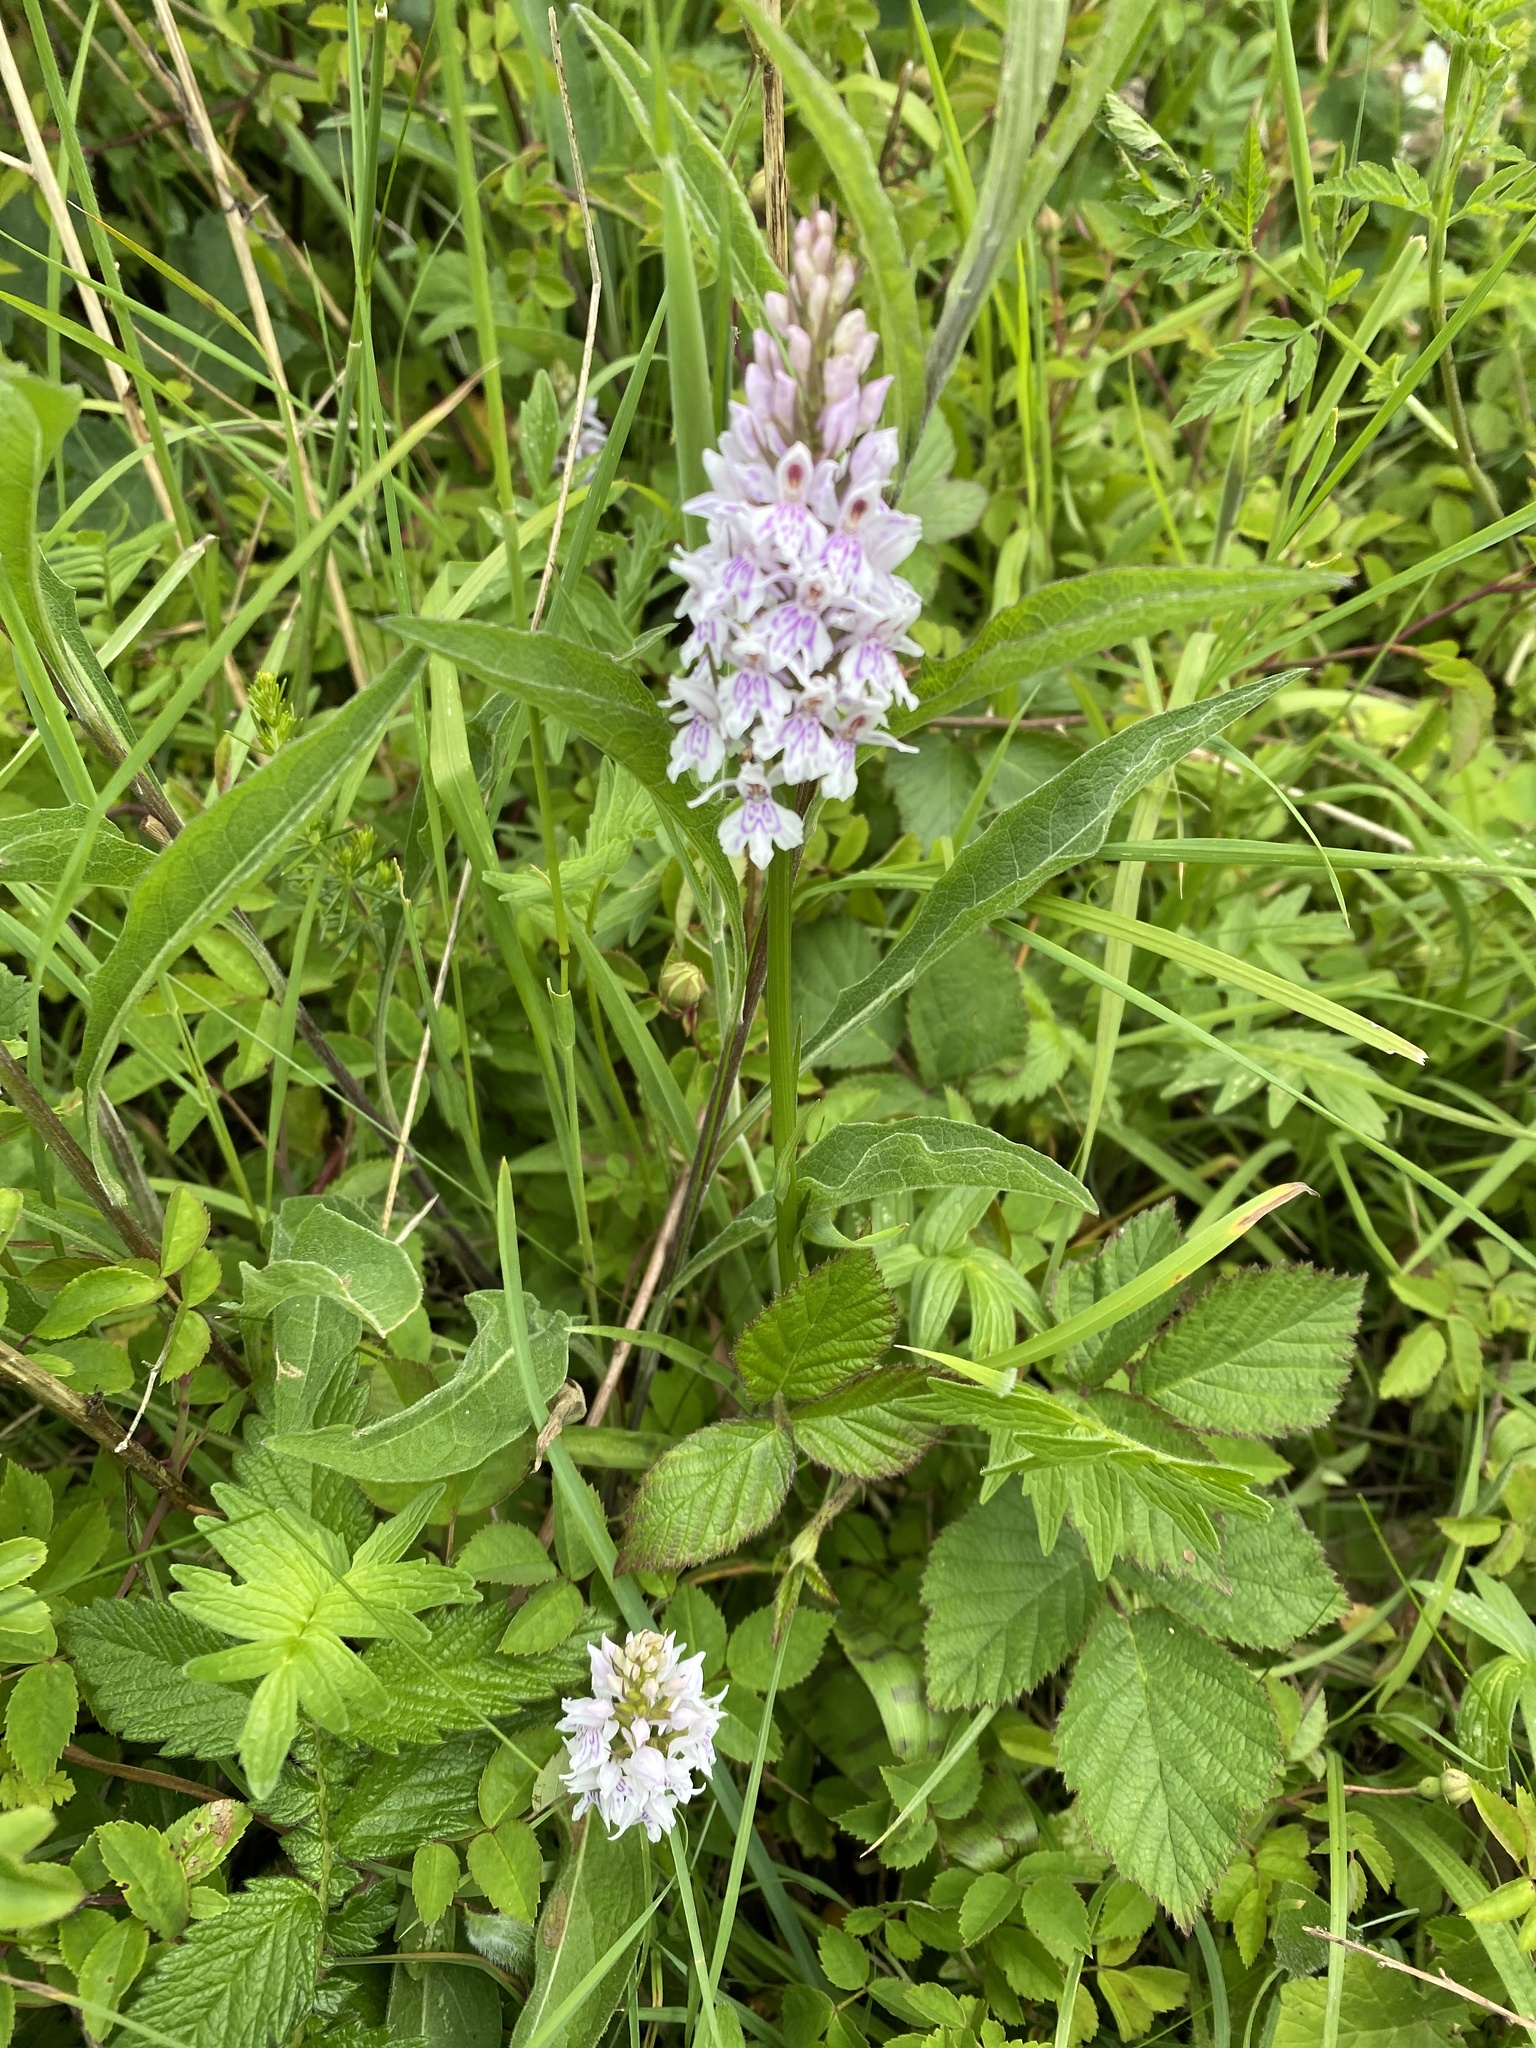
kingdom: Plantae
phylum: Tracheophyta
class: Liliopsida
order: Asparagales
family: Orchidaceae
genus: Dactylorhiza
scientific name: Dactylorhiza maculata
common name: Heath spotted-orchid
